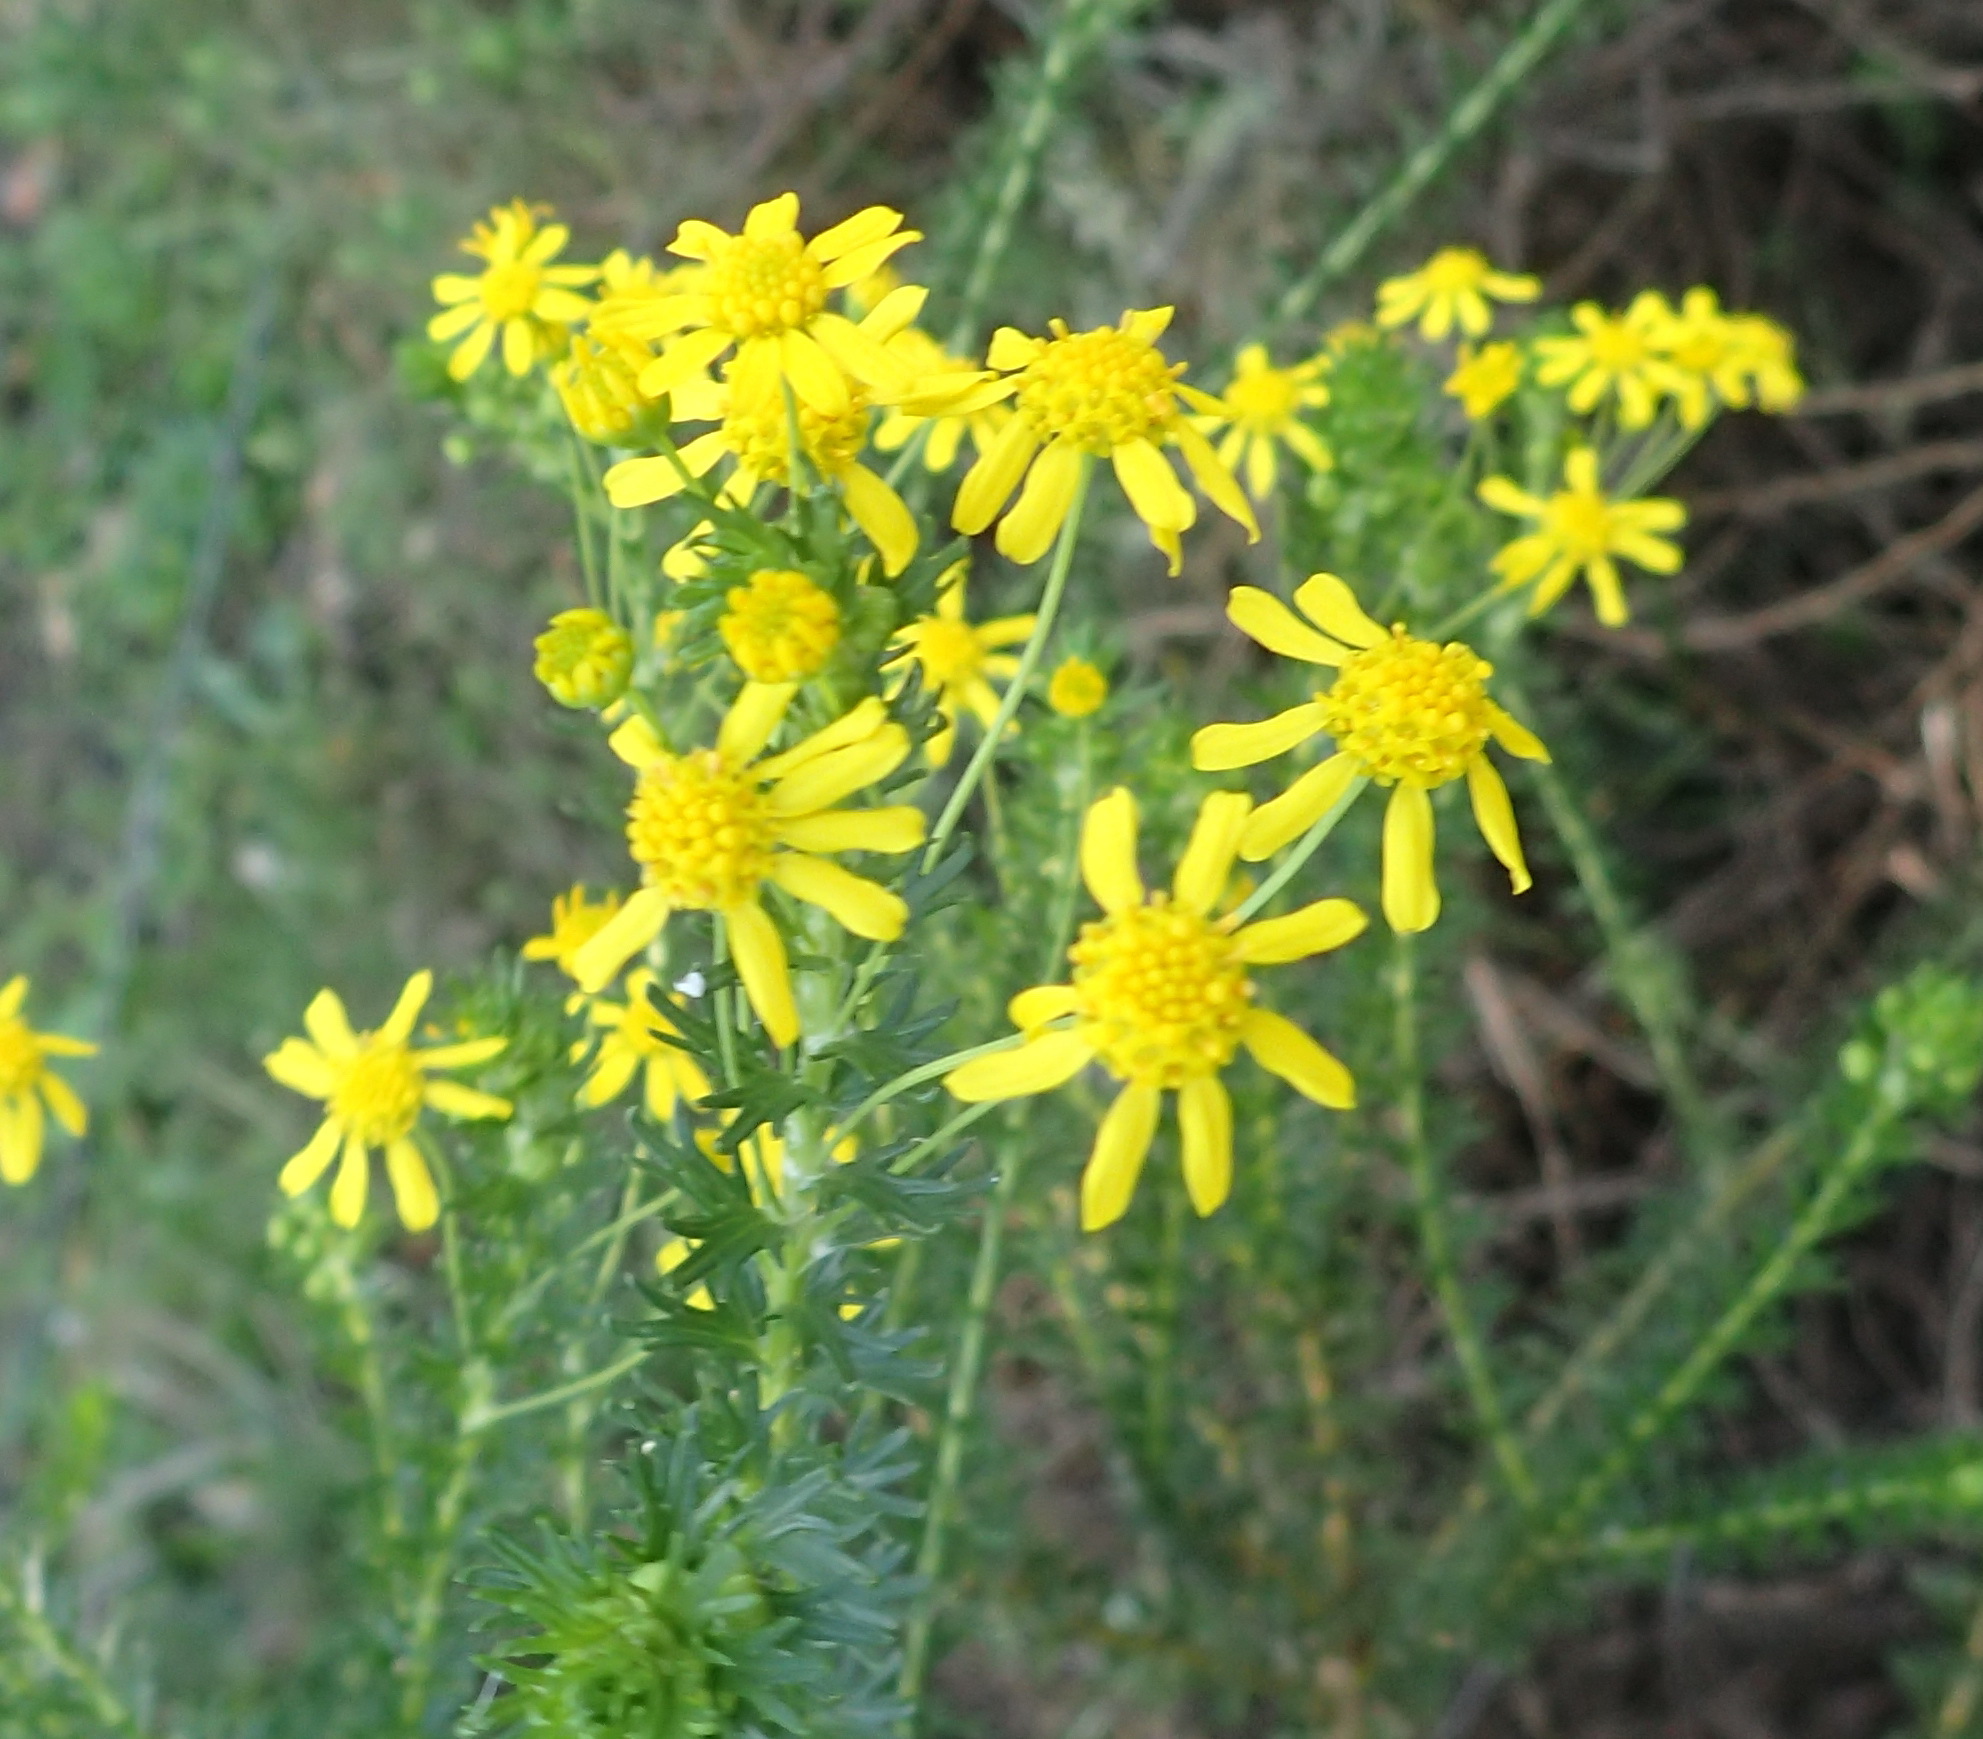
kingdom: Plantae
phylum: Tracheophyta
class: Magnoliopsida
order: Asterales
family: Asteraceae
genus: Euryops
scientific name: Euryops virgineus
